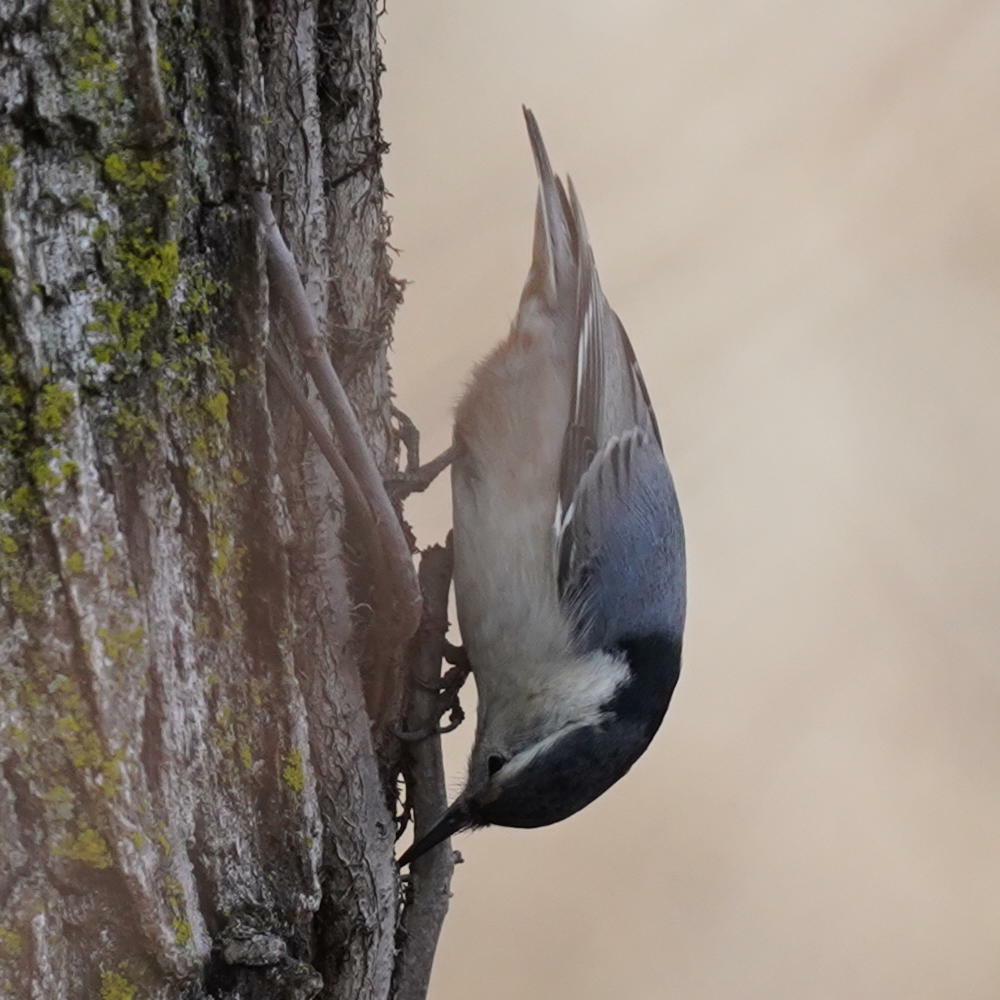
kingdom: Animalia
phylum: Chordata
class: Aves
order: Passeriformes
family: Sittidae
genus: Sitta
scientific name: Sitta carolinensis
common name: White-breasted nuthatch
